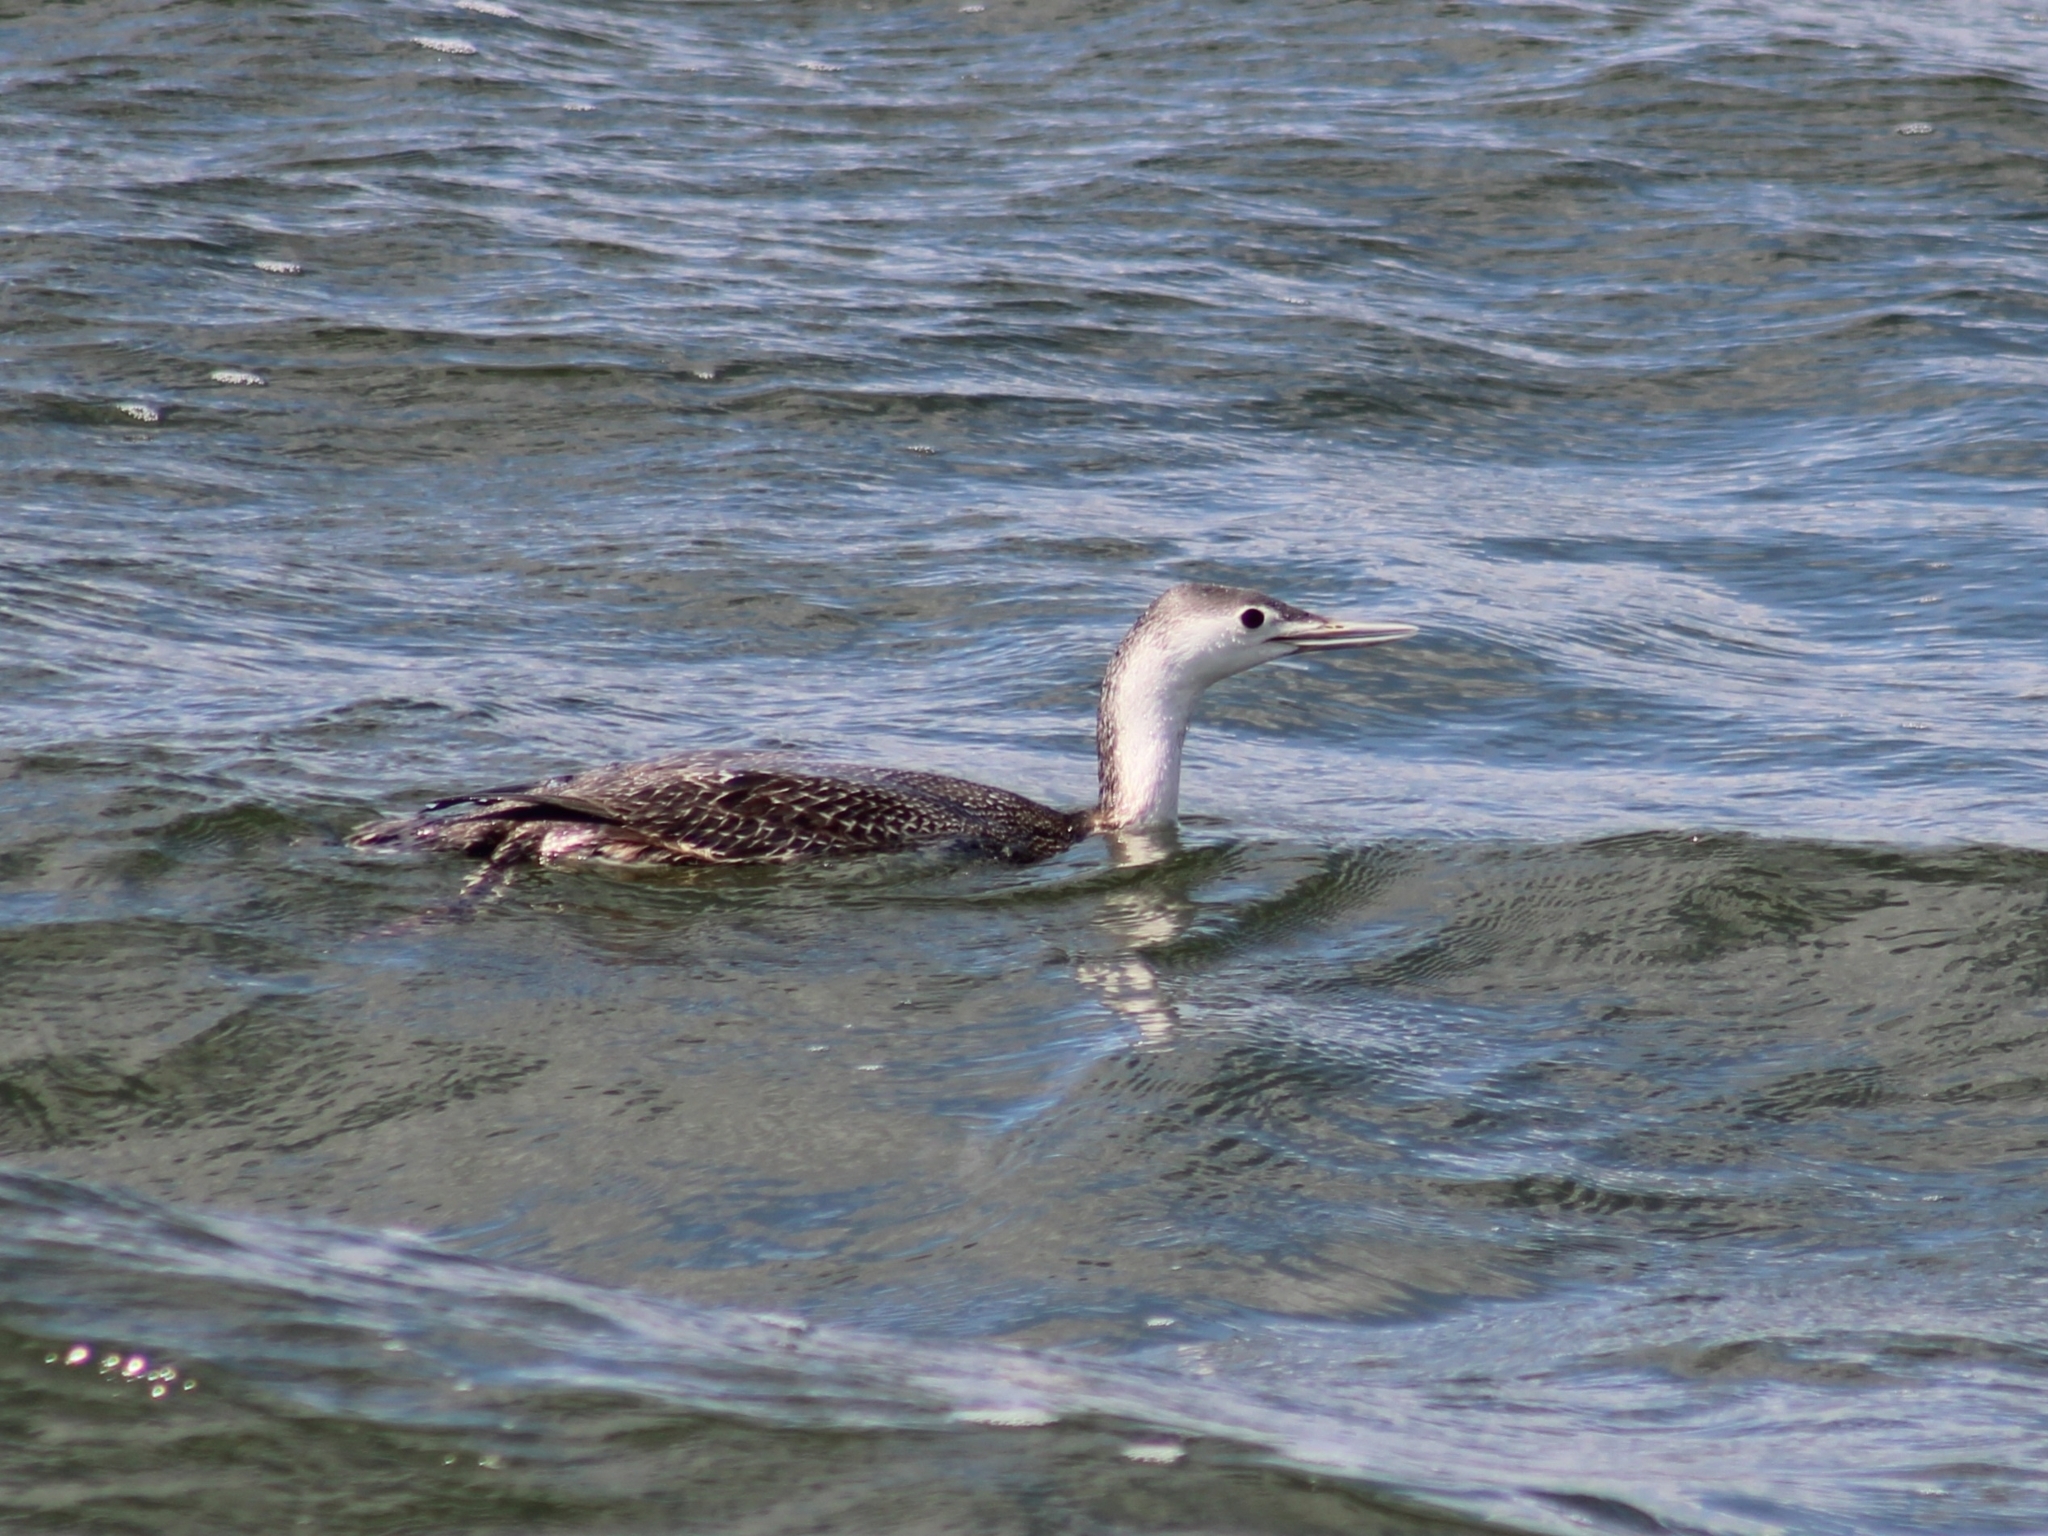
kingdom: Animalia
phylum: Chordata
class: Aves
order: Gaviiformes
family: Gaviidae
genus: Gavia
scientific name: Gavia stellata
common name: Red-throated loon
